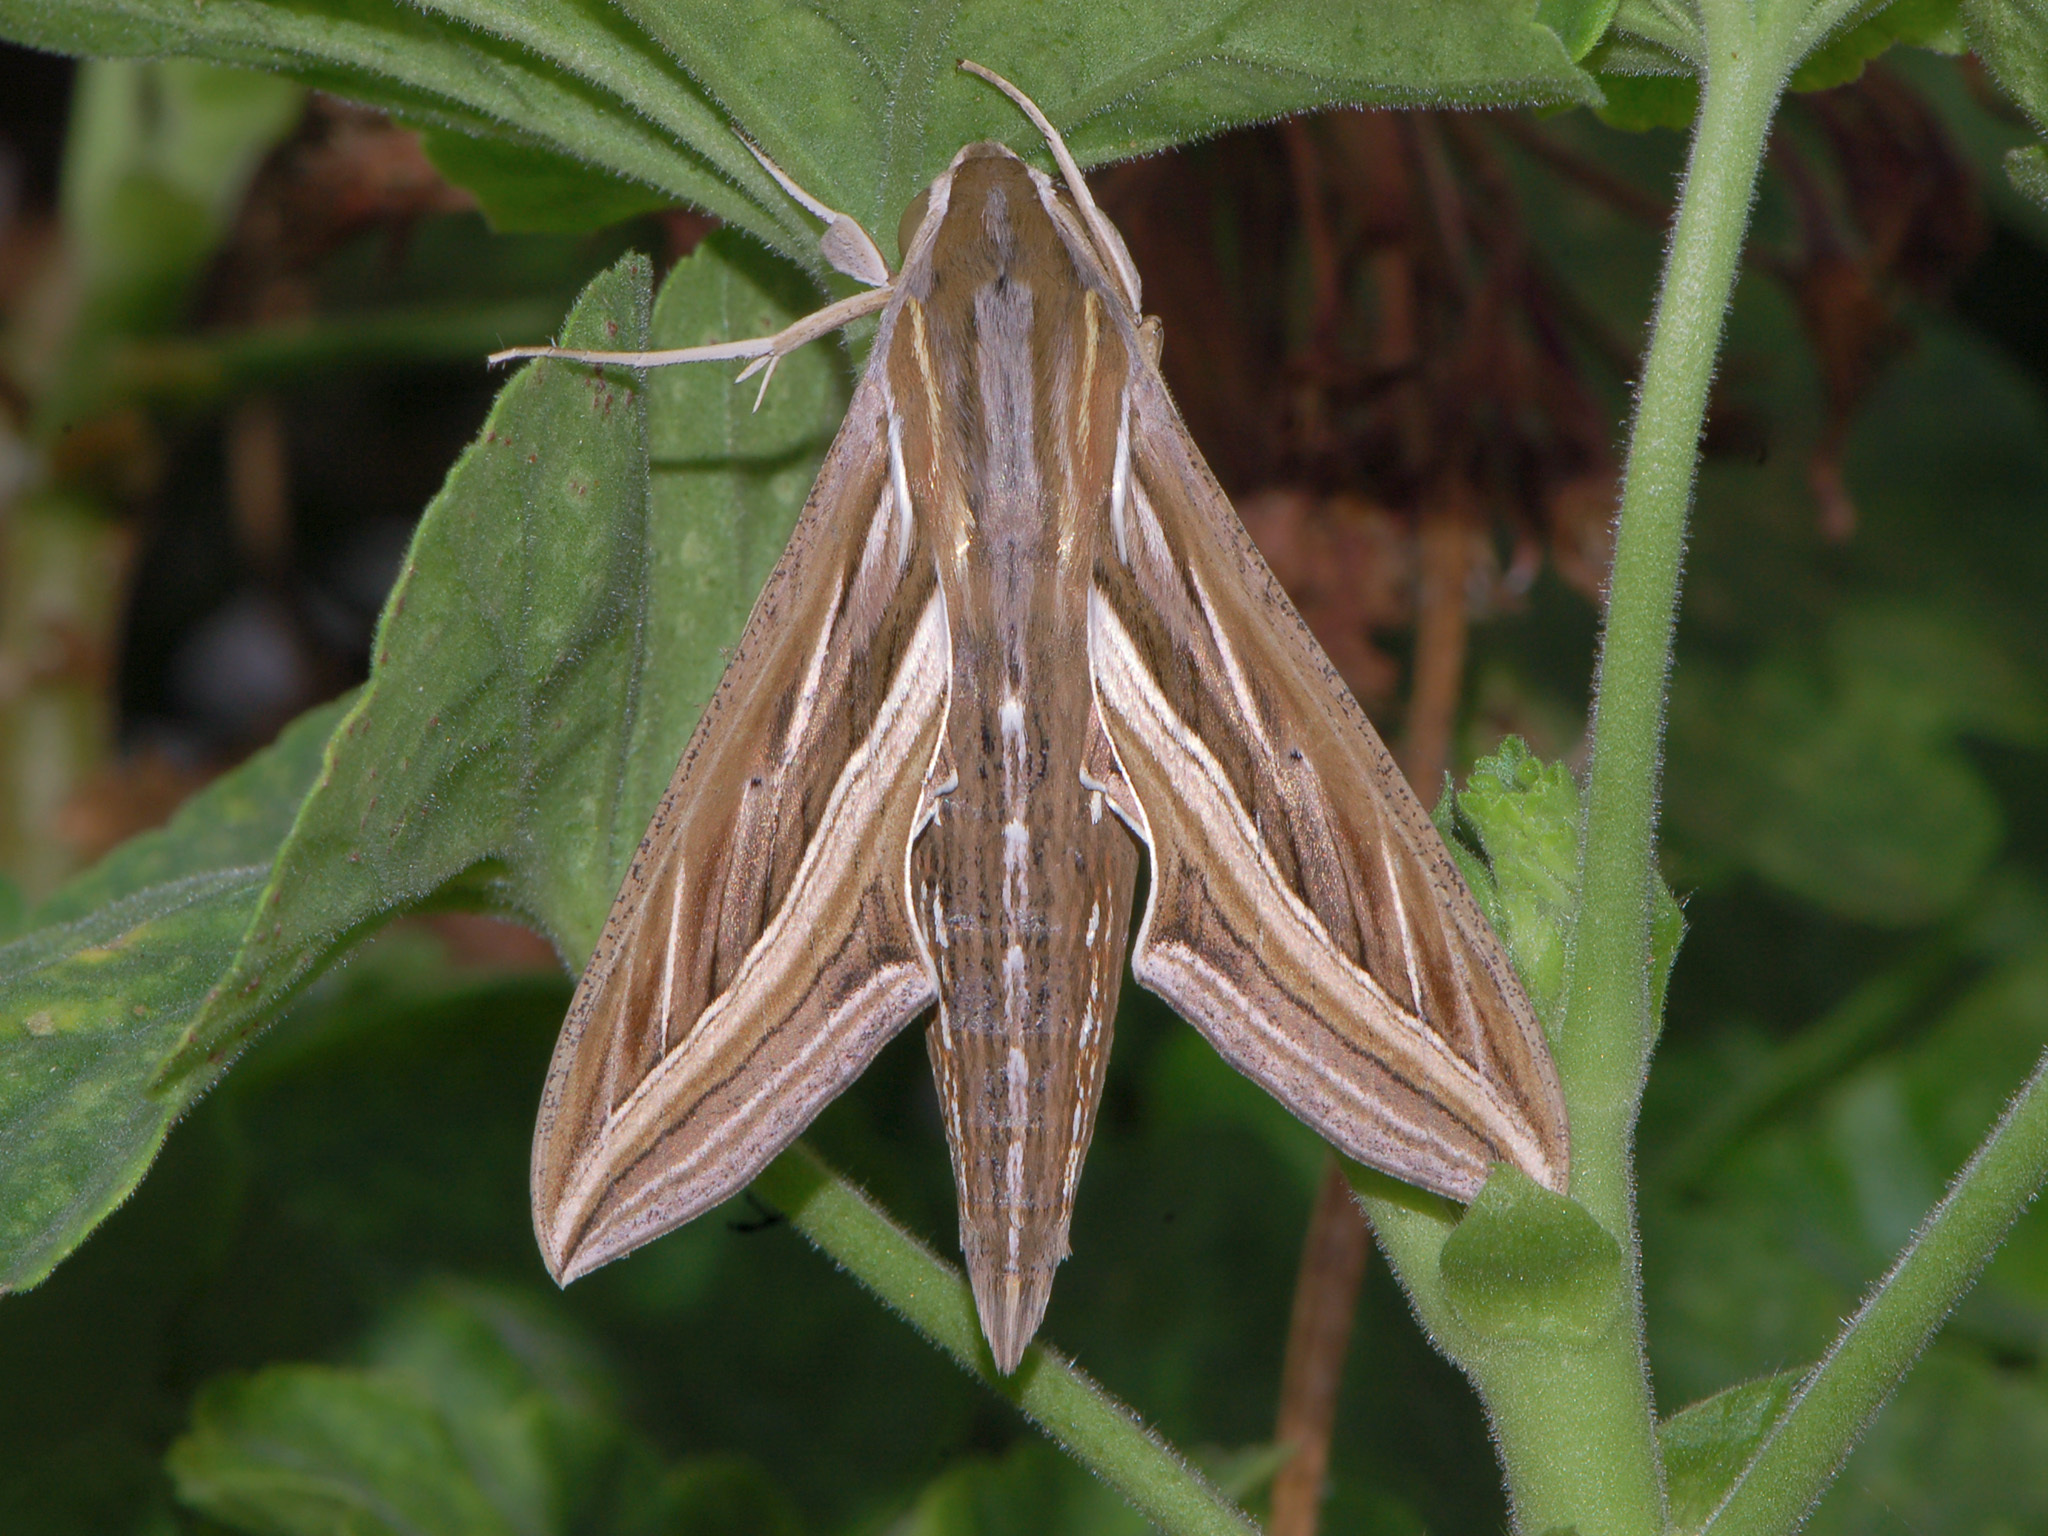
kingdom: Animalia
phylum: Arthropoda
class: Insecta
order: Lepidoptera
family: Sphingidae
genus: Hippotion
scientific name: Hippotion celerio
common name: Silver-striped hawk-moth
